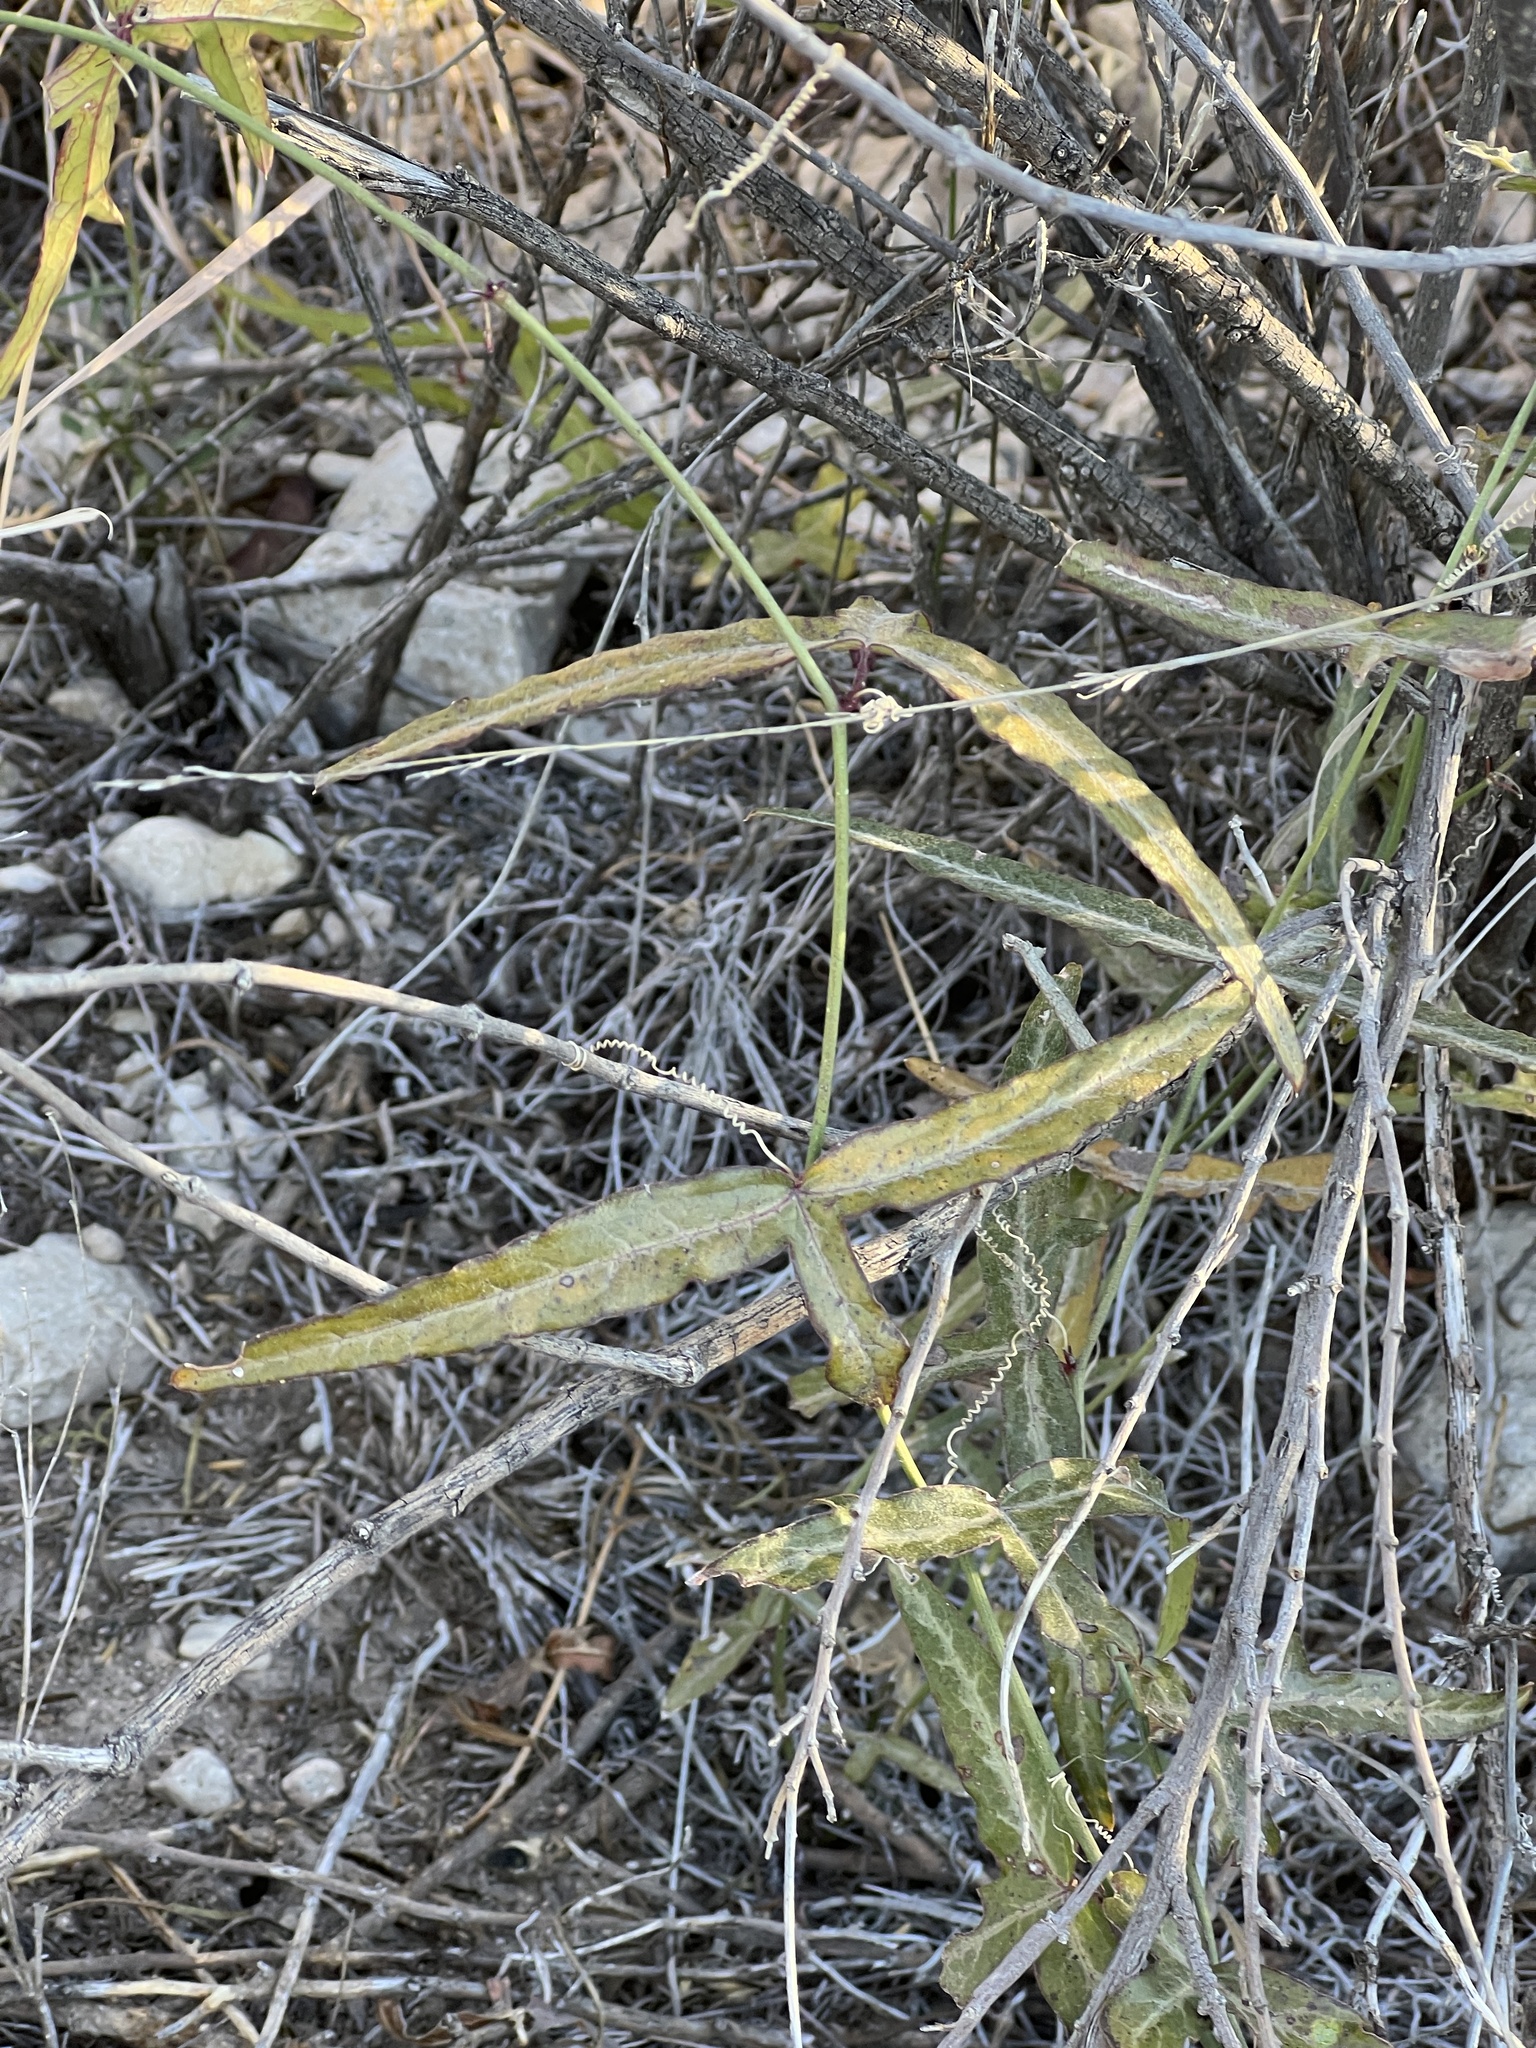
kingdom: Plantae
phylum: Tracheophyta
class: Magnoliopsida
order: Malpighiales
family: Passifloraceae
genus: Passiflora
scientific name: Passiflora tenuiloba
